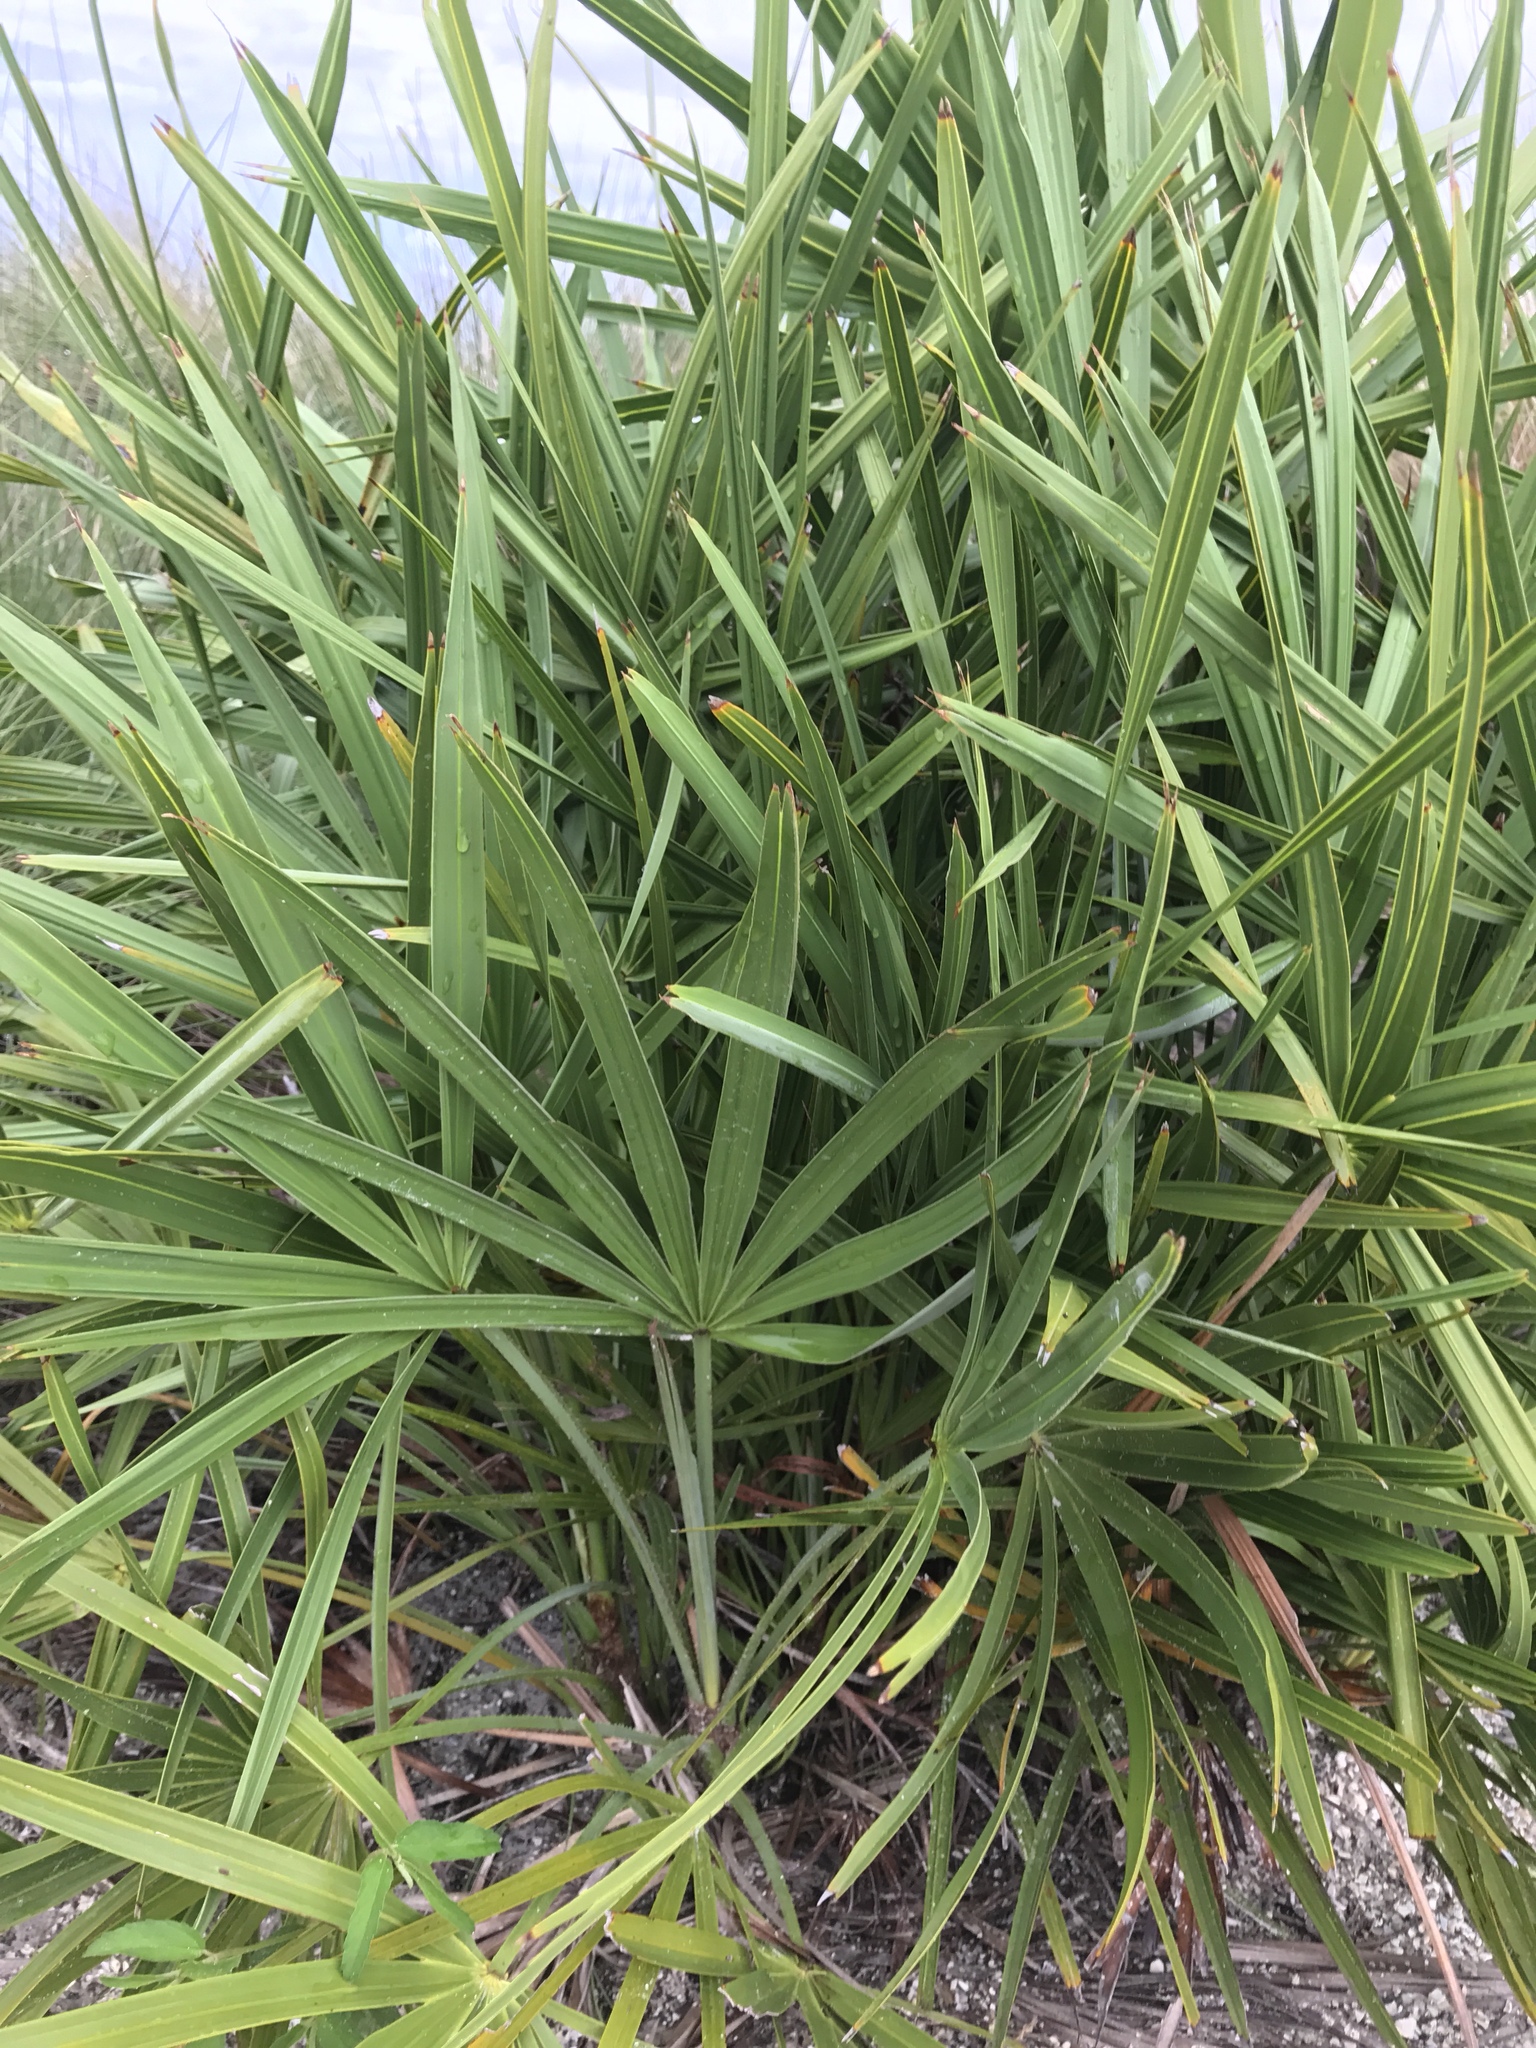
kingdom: Plantae
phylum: Tracheophyta
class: Liliopsida
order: Arecales
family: Arecaceae
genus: Serenoa
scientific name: Serenoa repens
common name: Saw-palmetto
